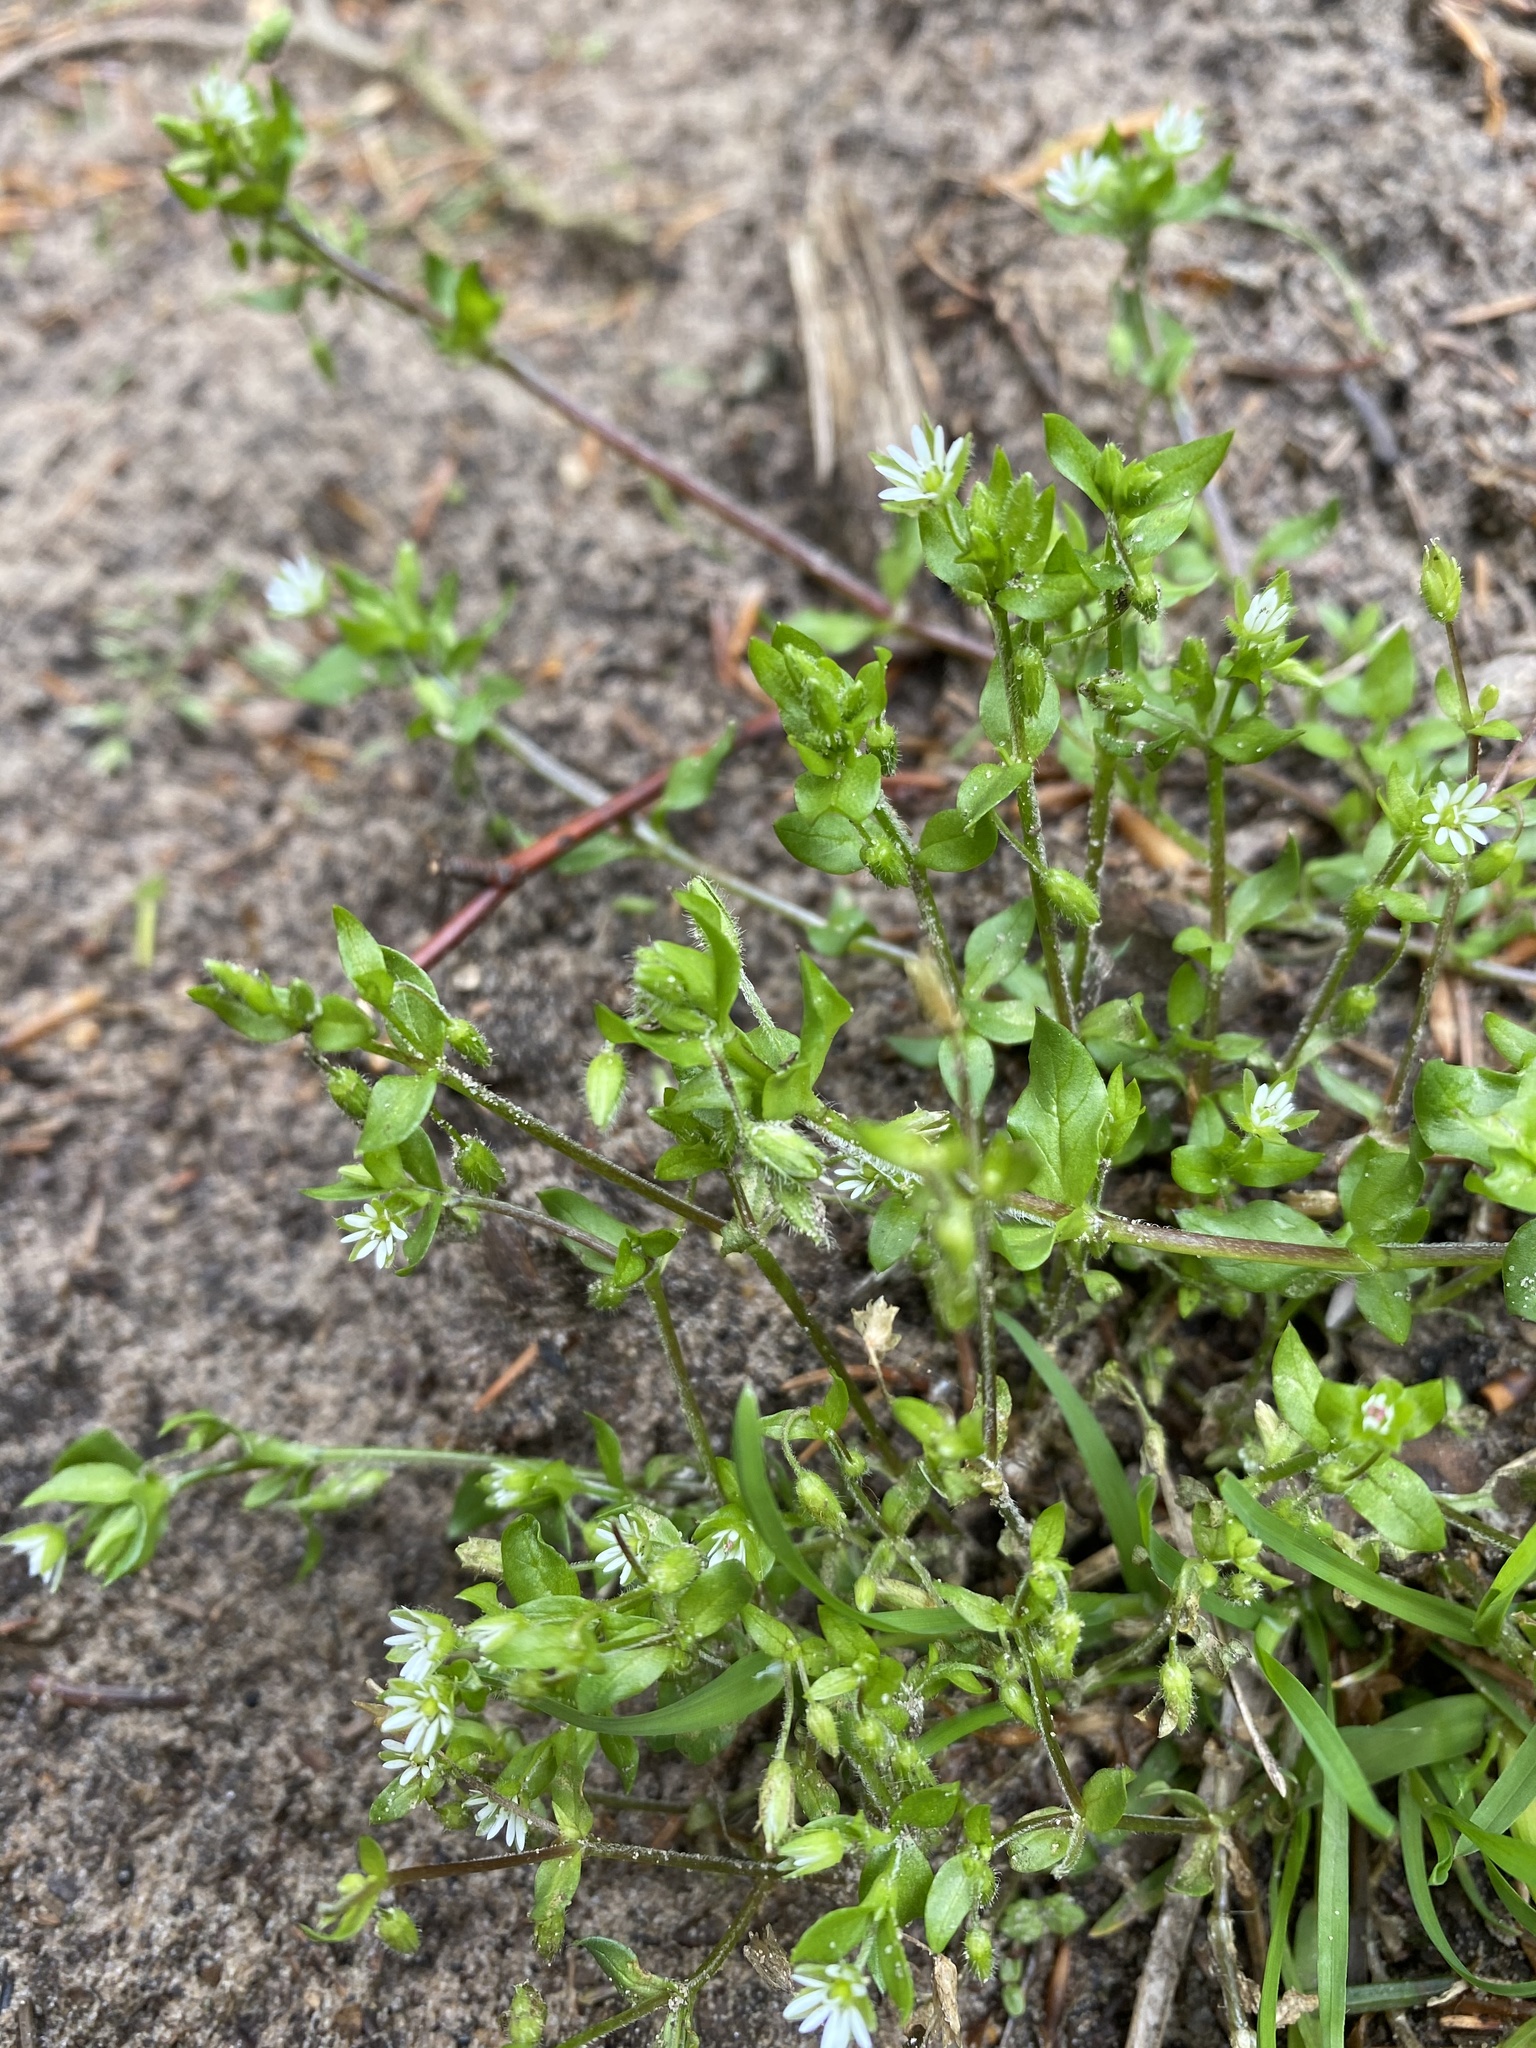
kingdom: Plantae
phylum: Tracheophyta
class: Magnoliopsida
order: Caryophyllales
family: Caryophyllaceae
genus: Stellaria
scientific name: Stellaria media
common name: Common chickweed
